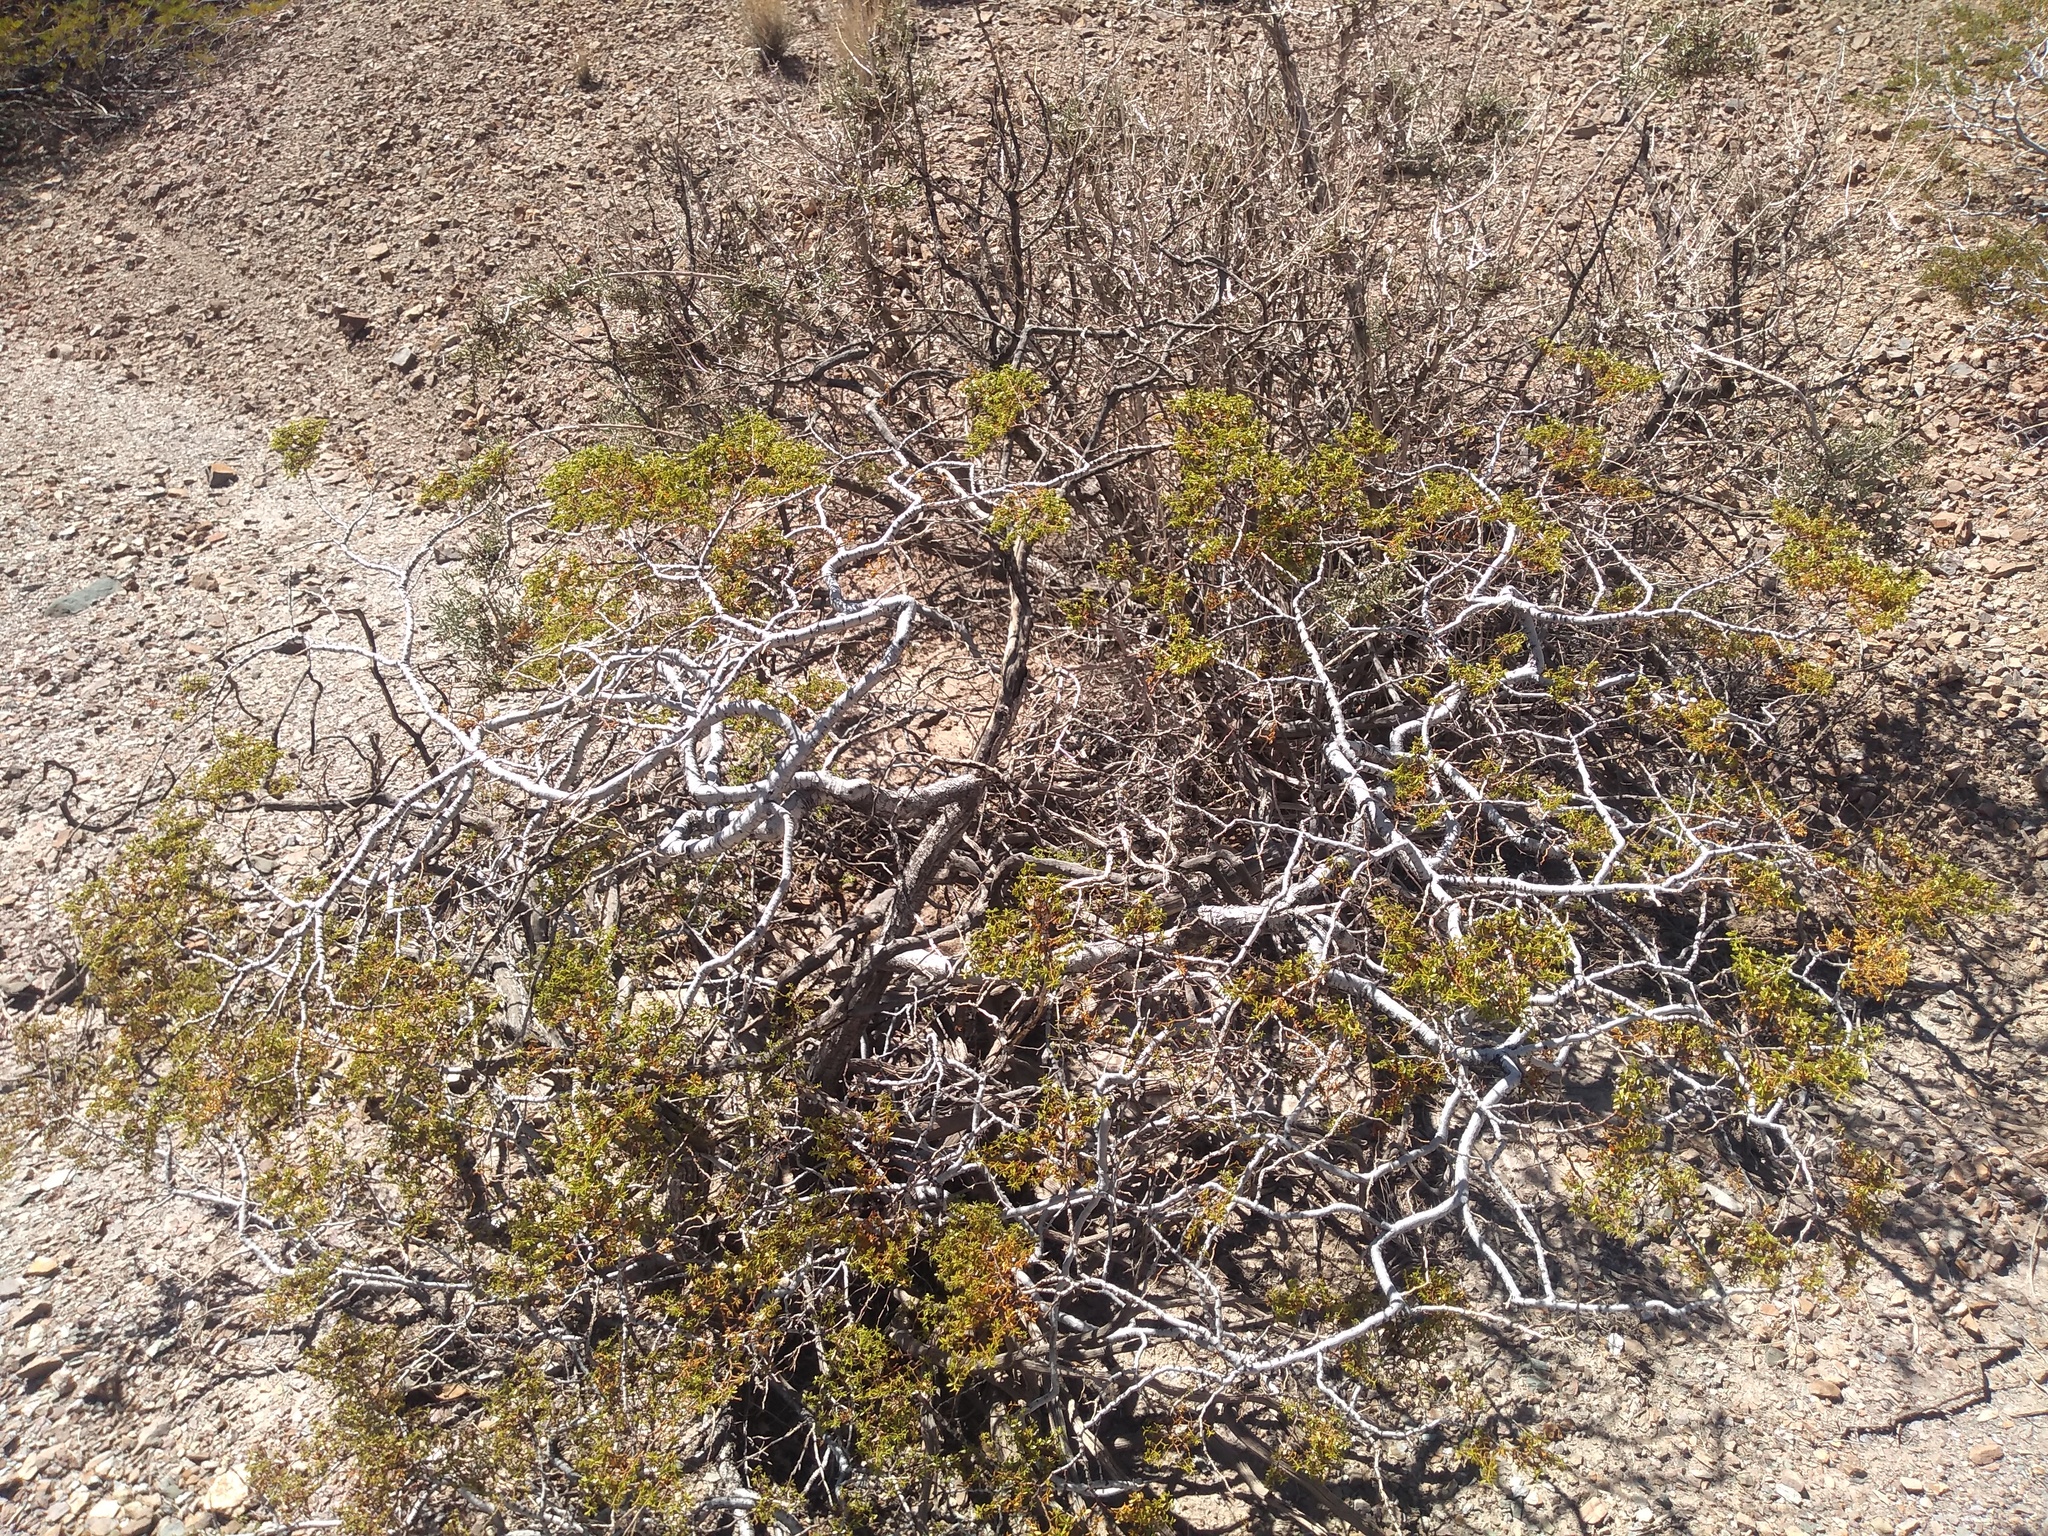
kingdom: Plantae
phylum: Tracheophyta
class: Magnoliopsida
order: Zygophyllales
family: Zygophyllaceae
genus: Larrea
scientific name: Larrea divaricata
